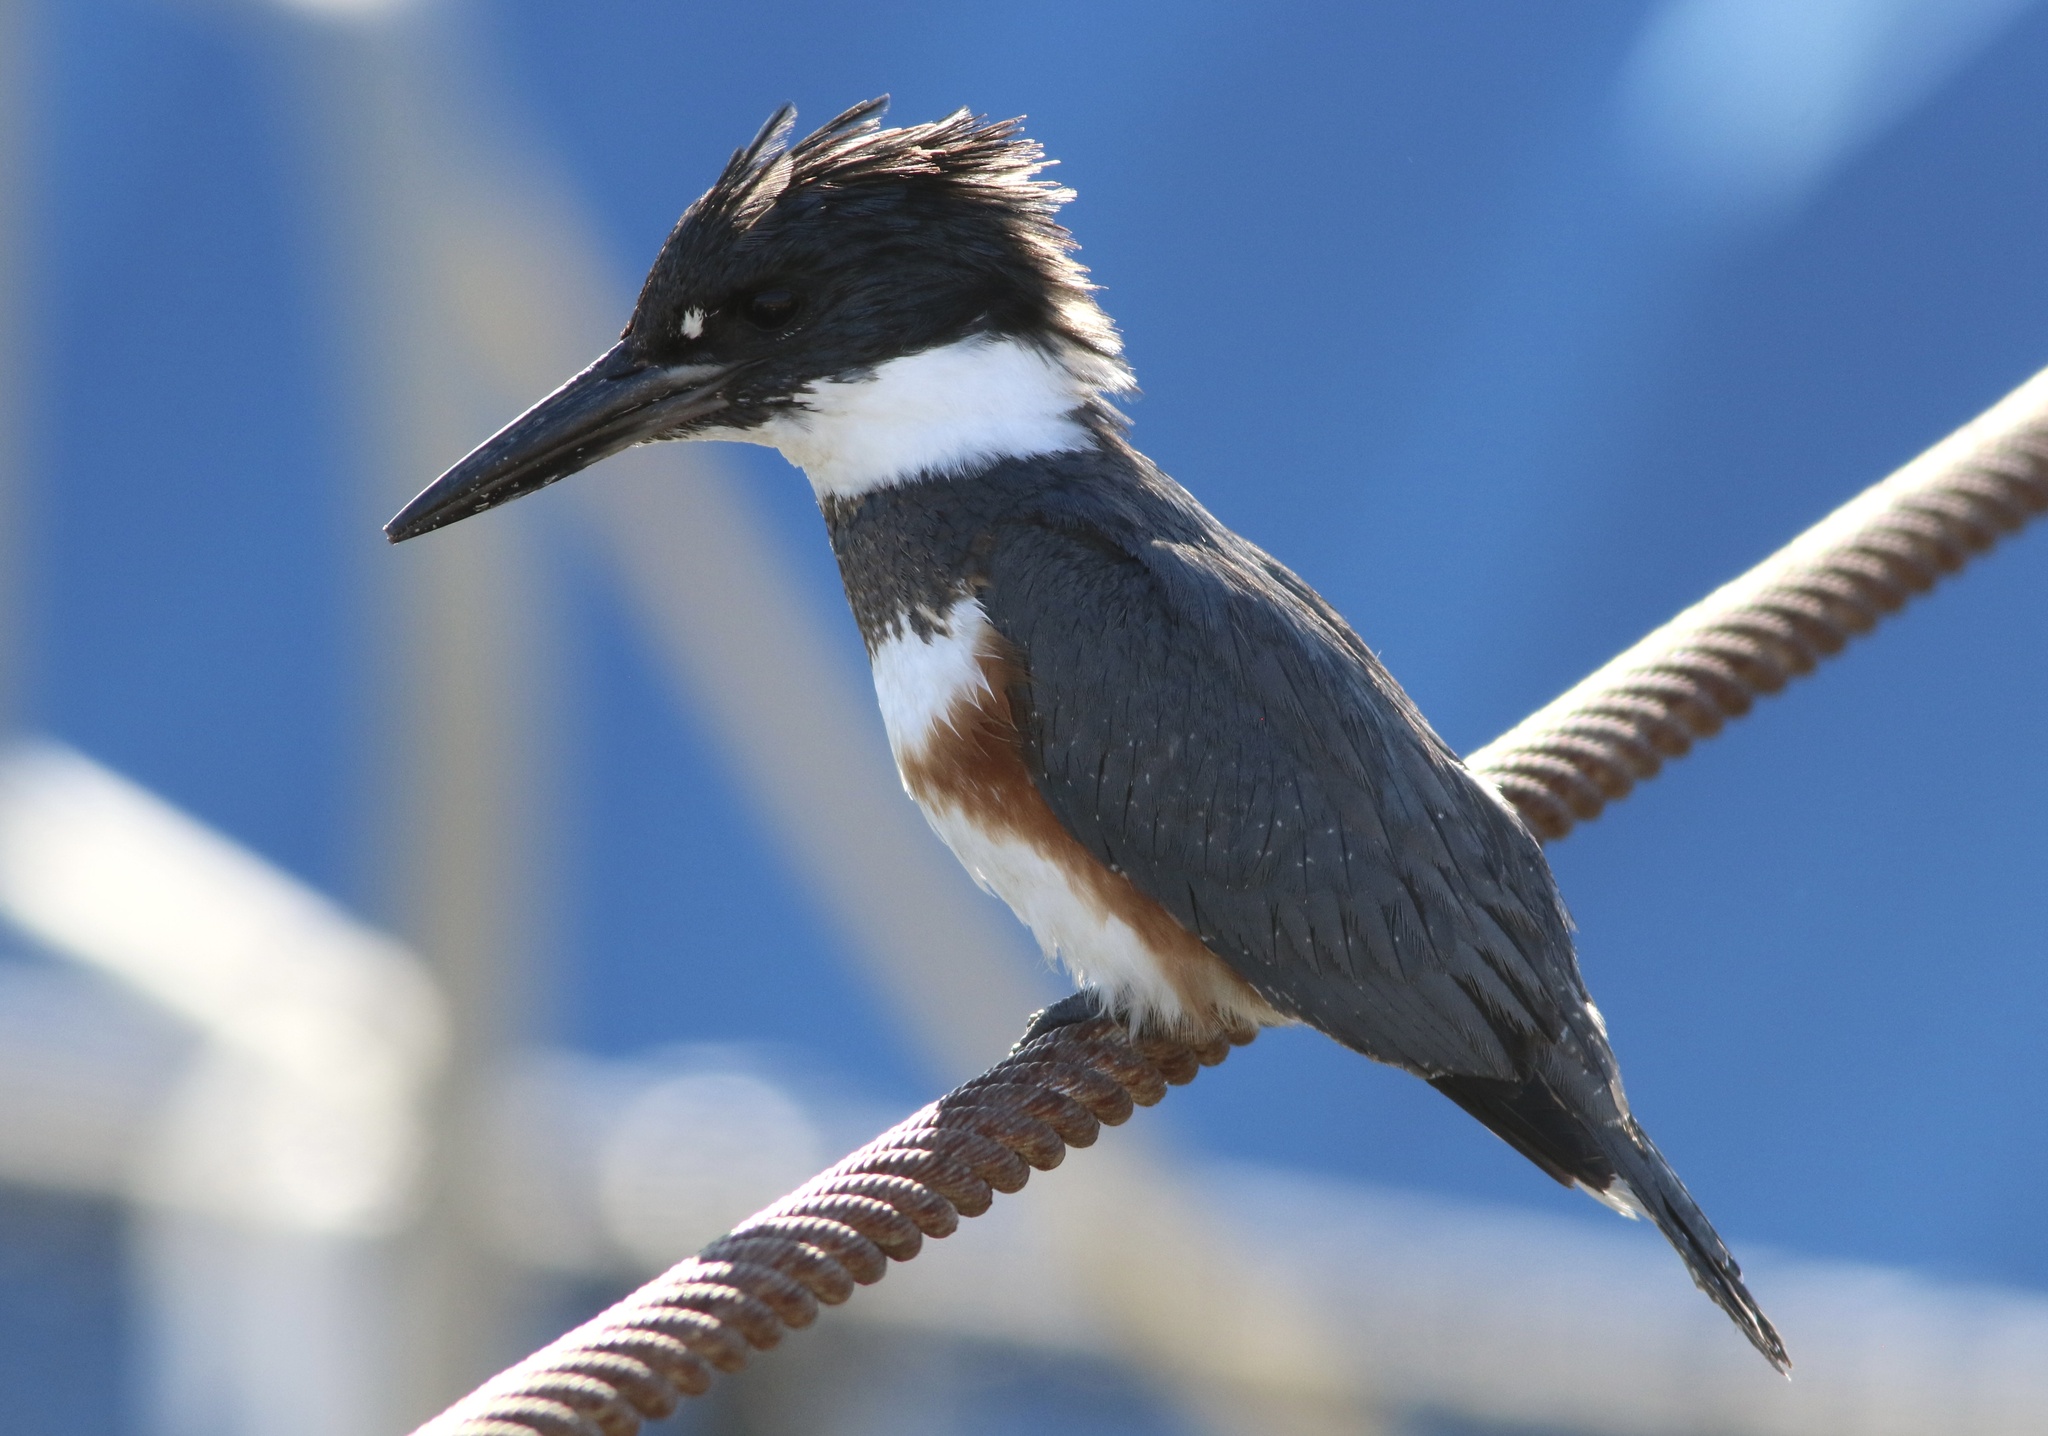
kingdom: Animalia
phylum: Chordata
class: Aves
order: Coraciiformes
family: Alcedinidae
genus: Megaceryle
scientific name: Megaceryle alcyon
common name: Belted kingfisher
